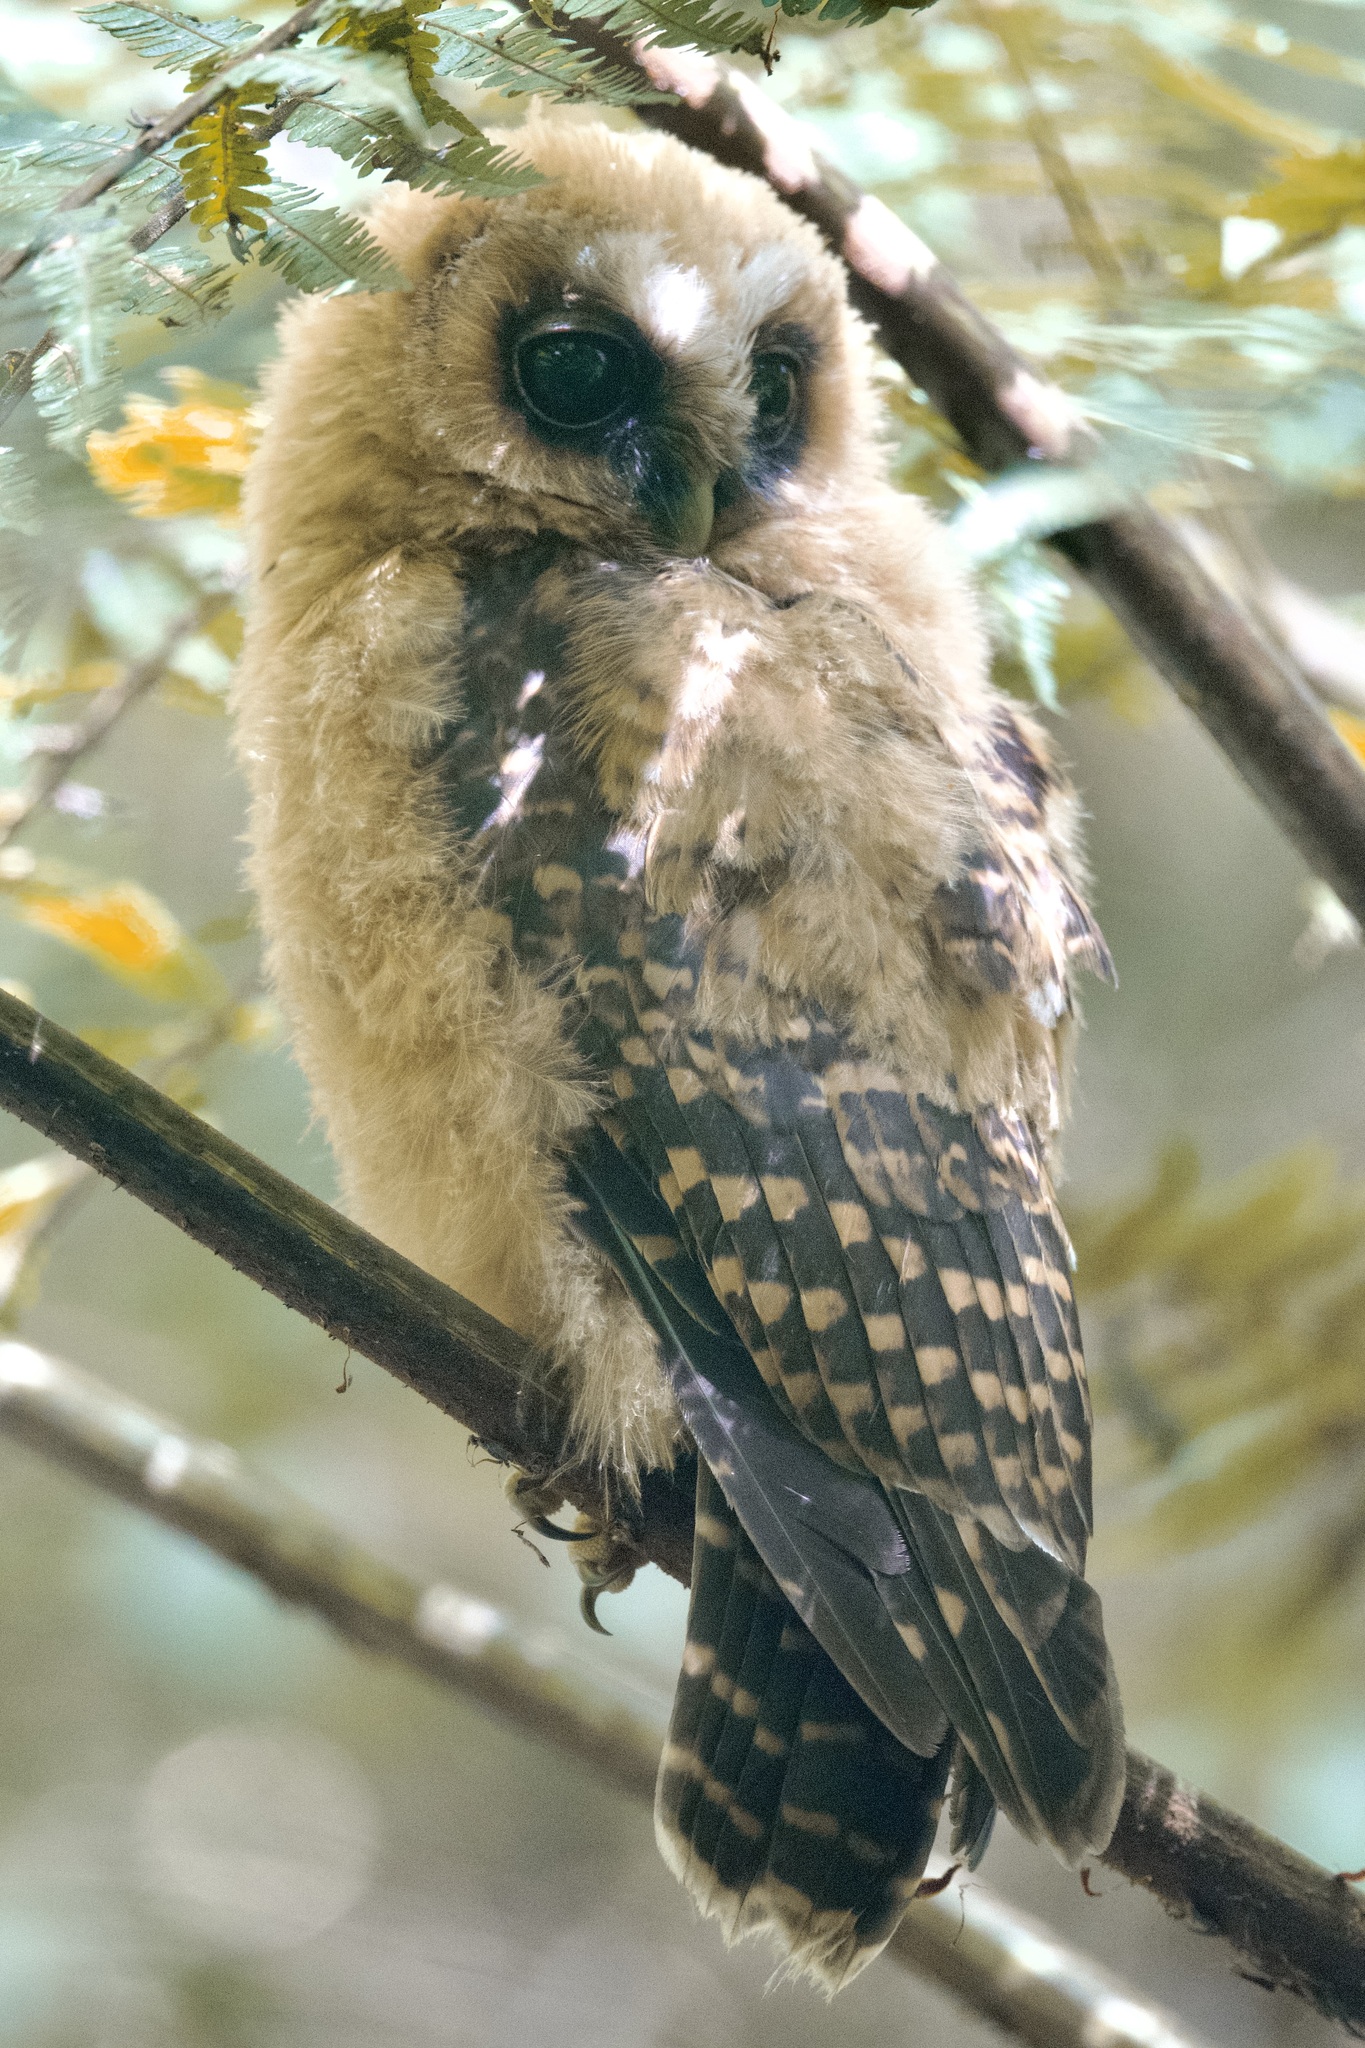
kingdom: Animalia
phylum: Chordata
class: Aves
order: Strigiformes
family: Strigidae
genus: Strix
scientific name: Strix albitarsis
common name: Rufous-banded owl
